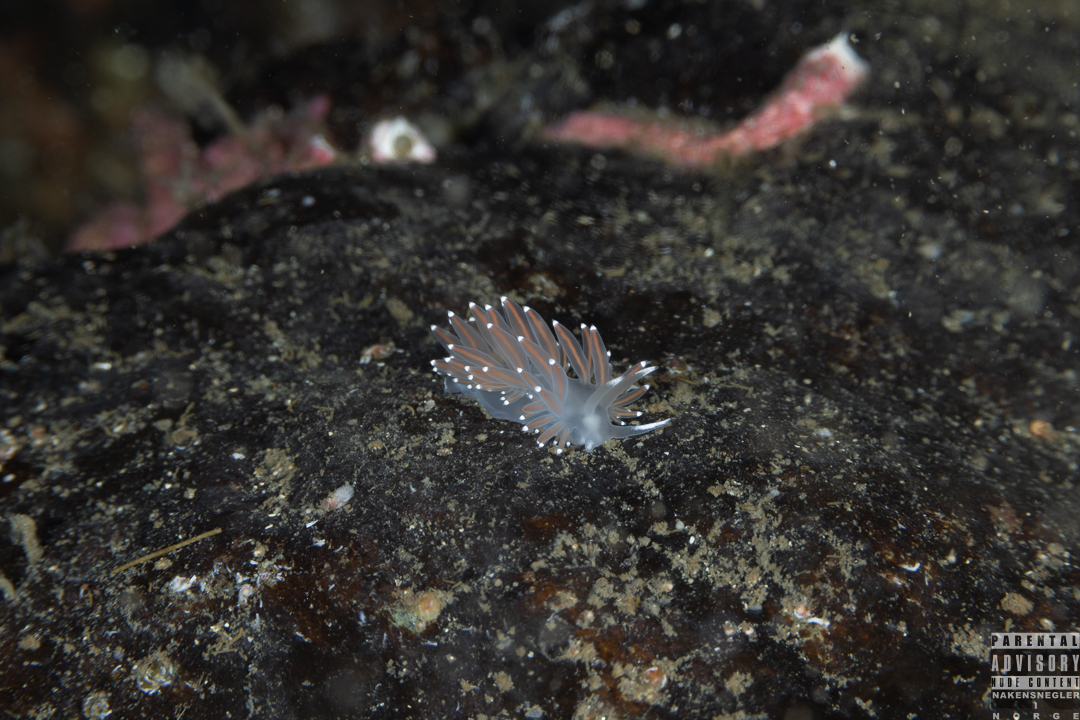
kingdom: Animalia
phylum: Mollusca
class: Gastropoda
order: Nudibranchia
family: Coryphellidae
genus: Coryphella
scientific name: Coryphella browni
